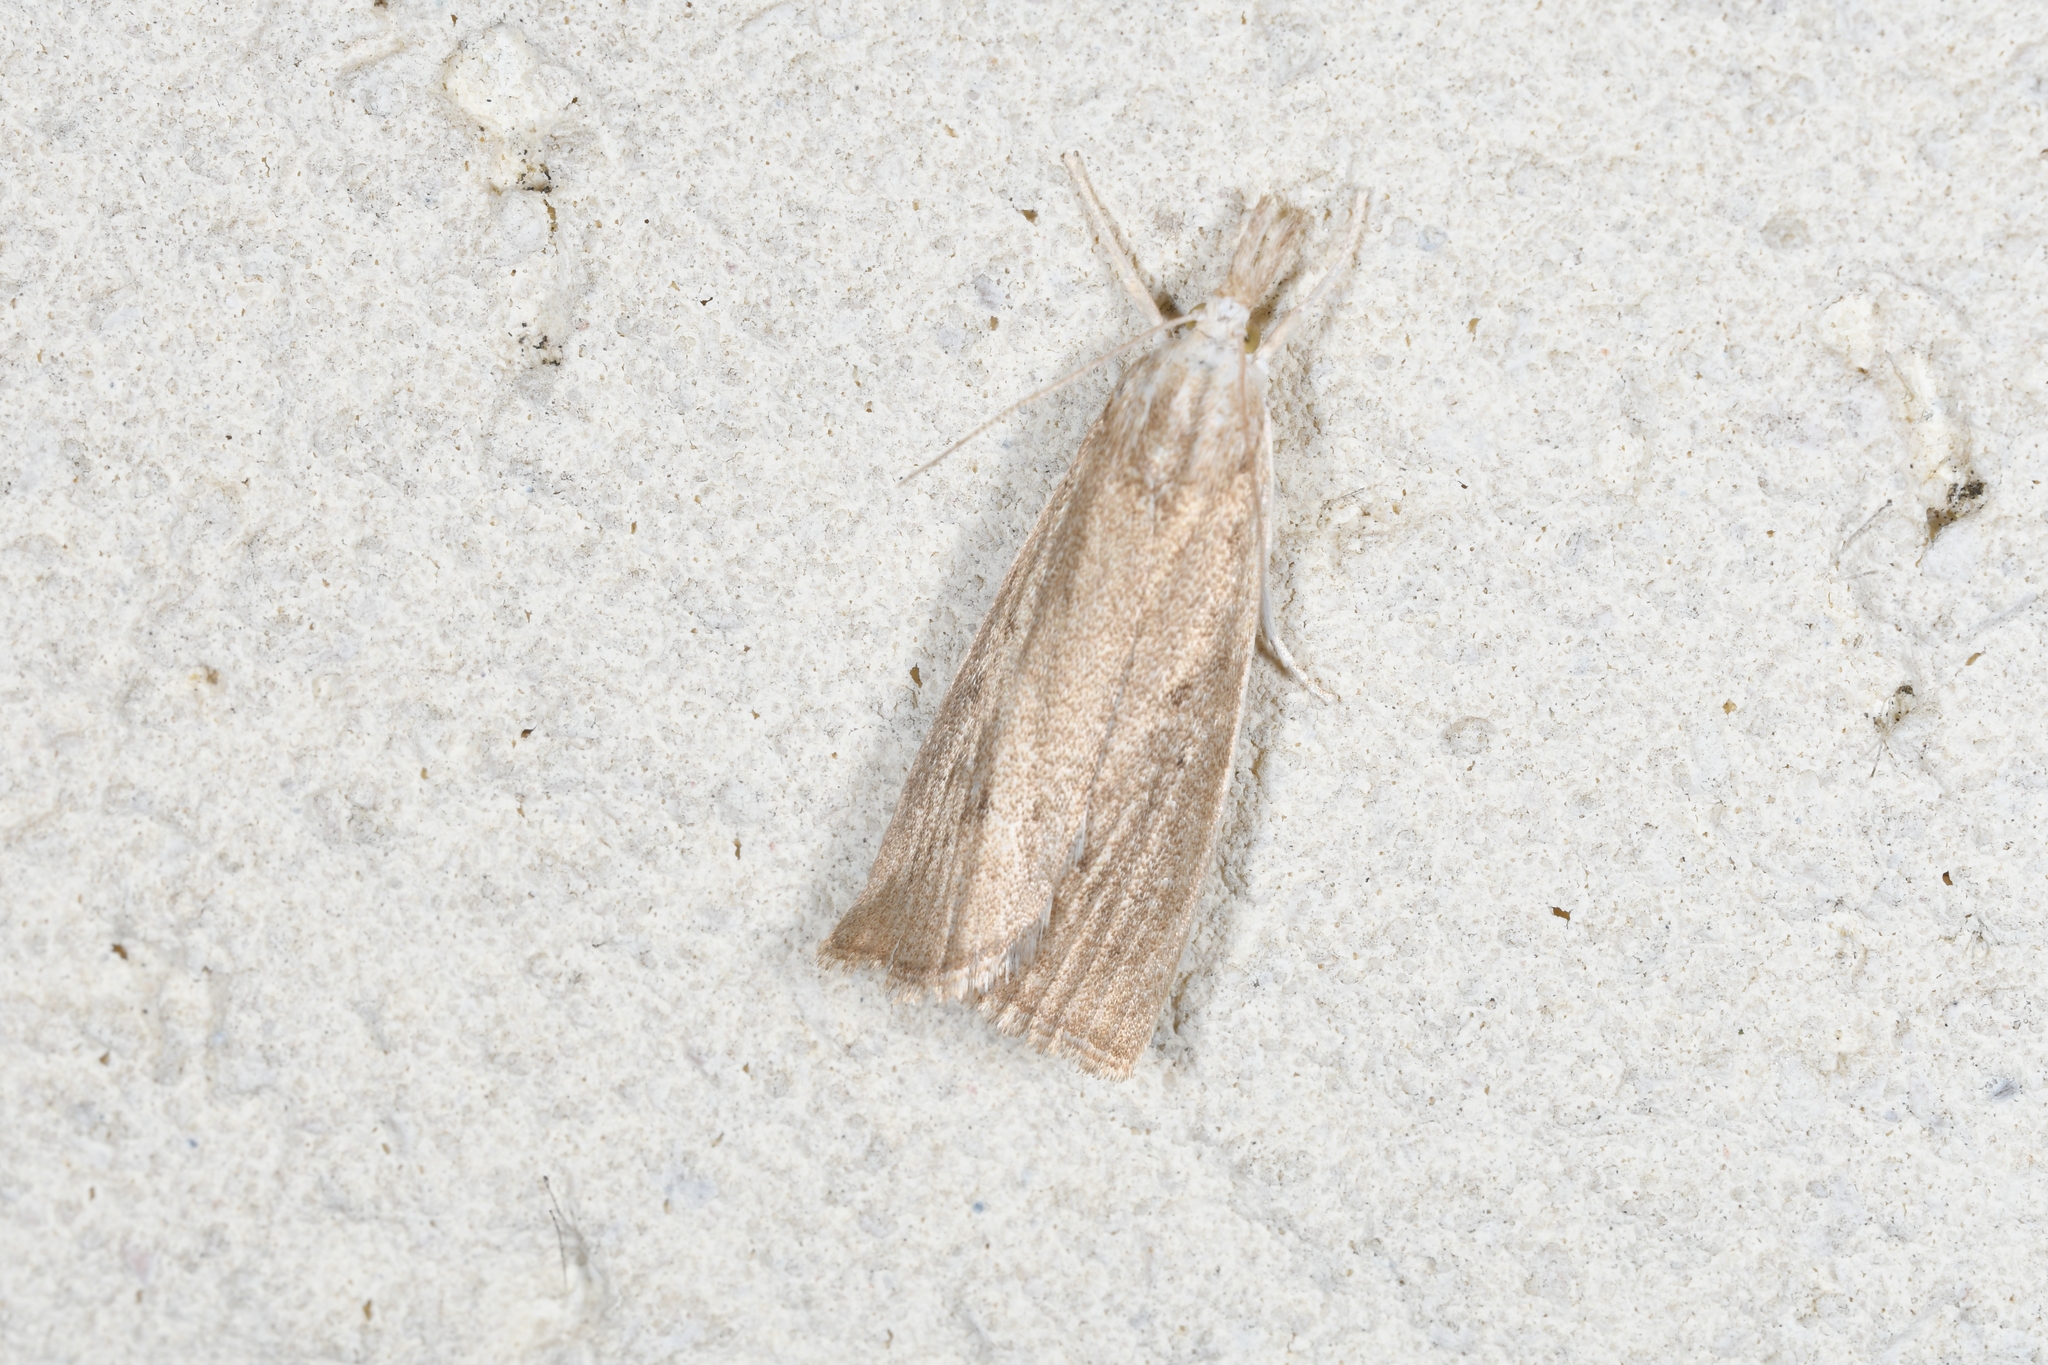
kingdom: Animalia
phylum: Arthropoda
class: Insecta
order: Lepidoptera
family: Crambidae
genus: Calamotropha
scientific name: Calamotropha paludella
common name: Bulrush veneer
